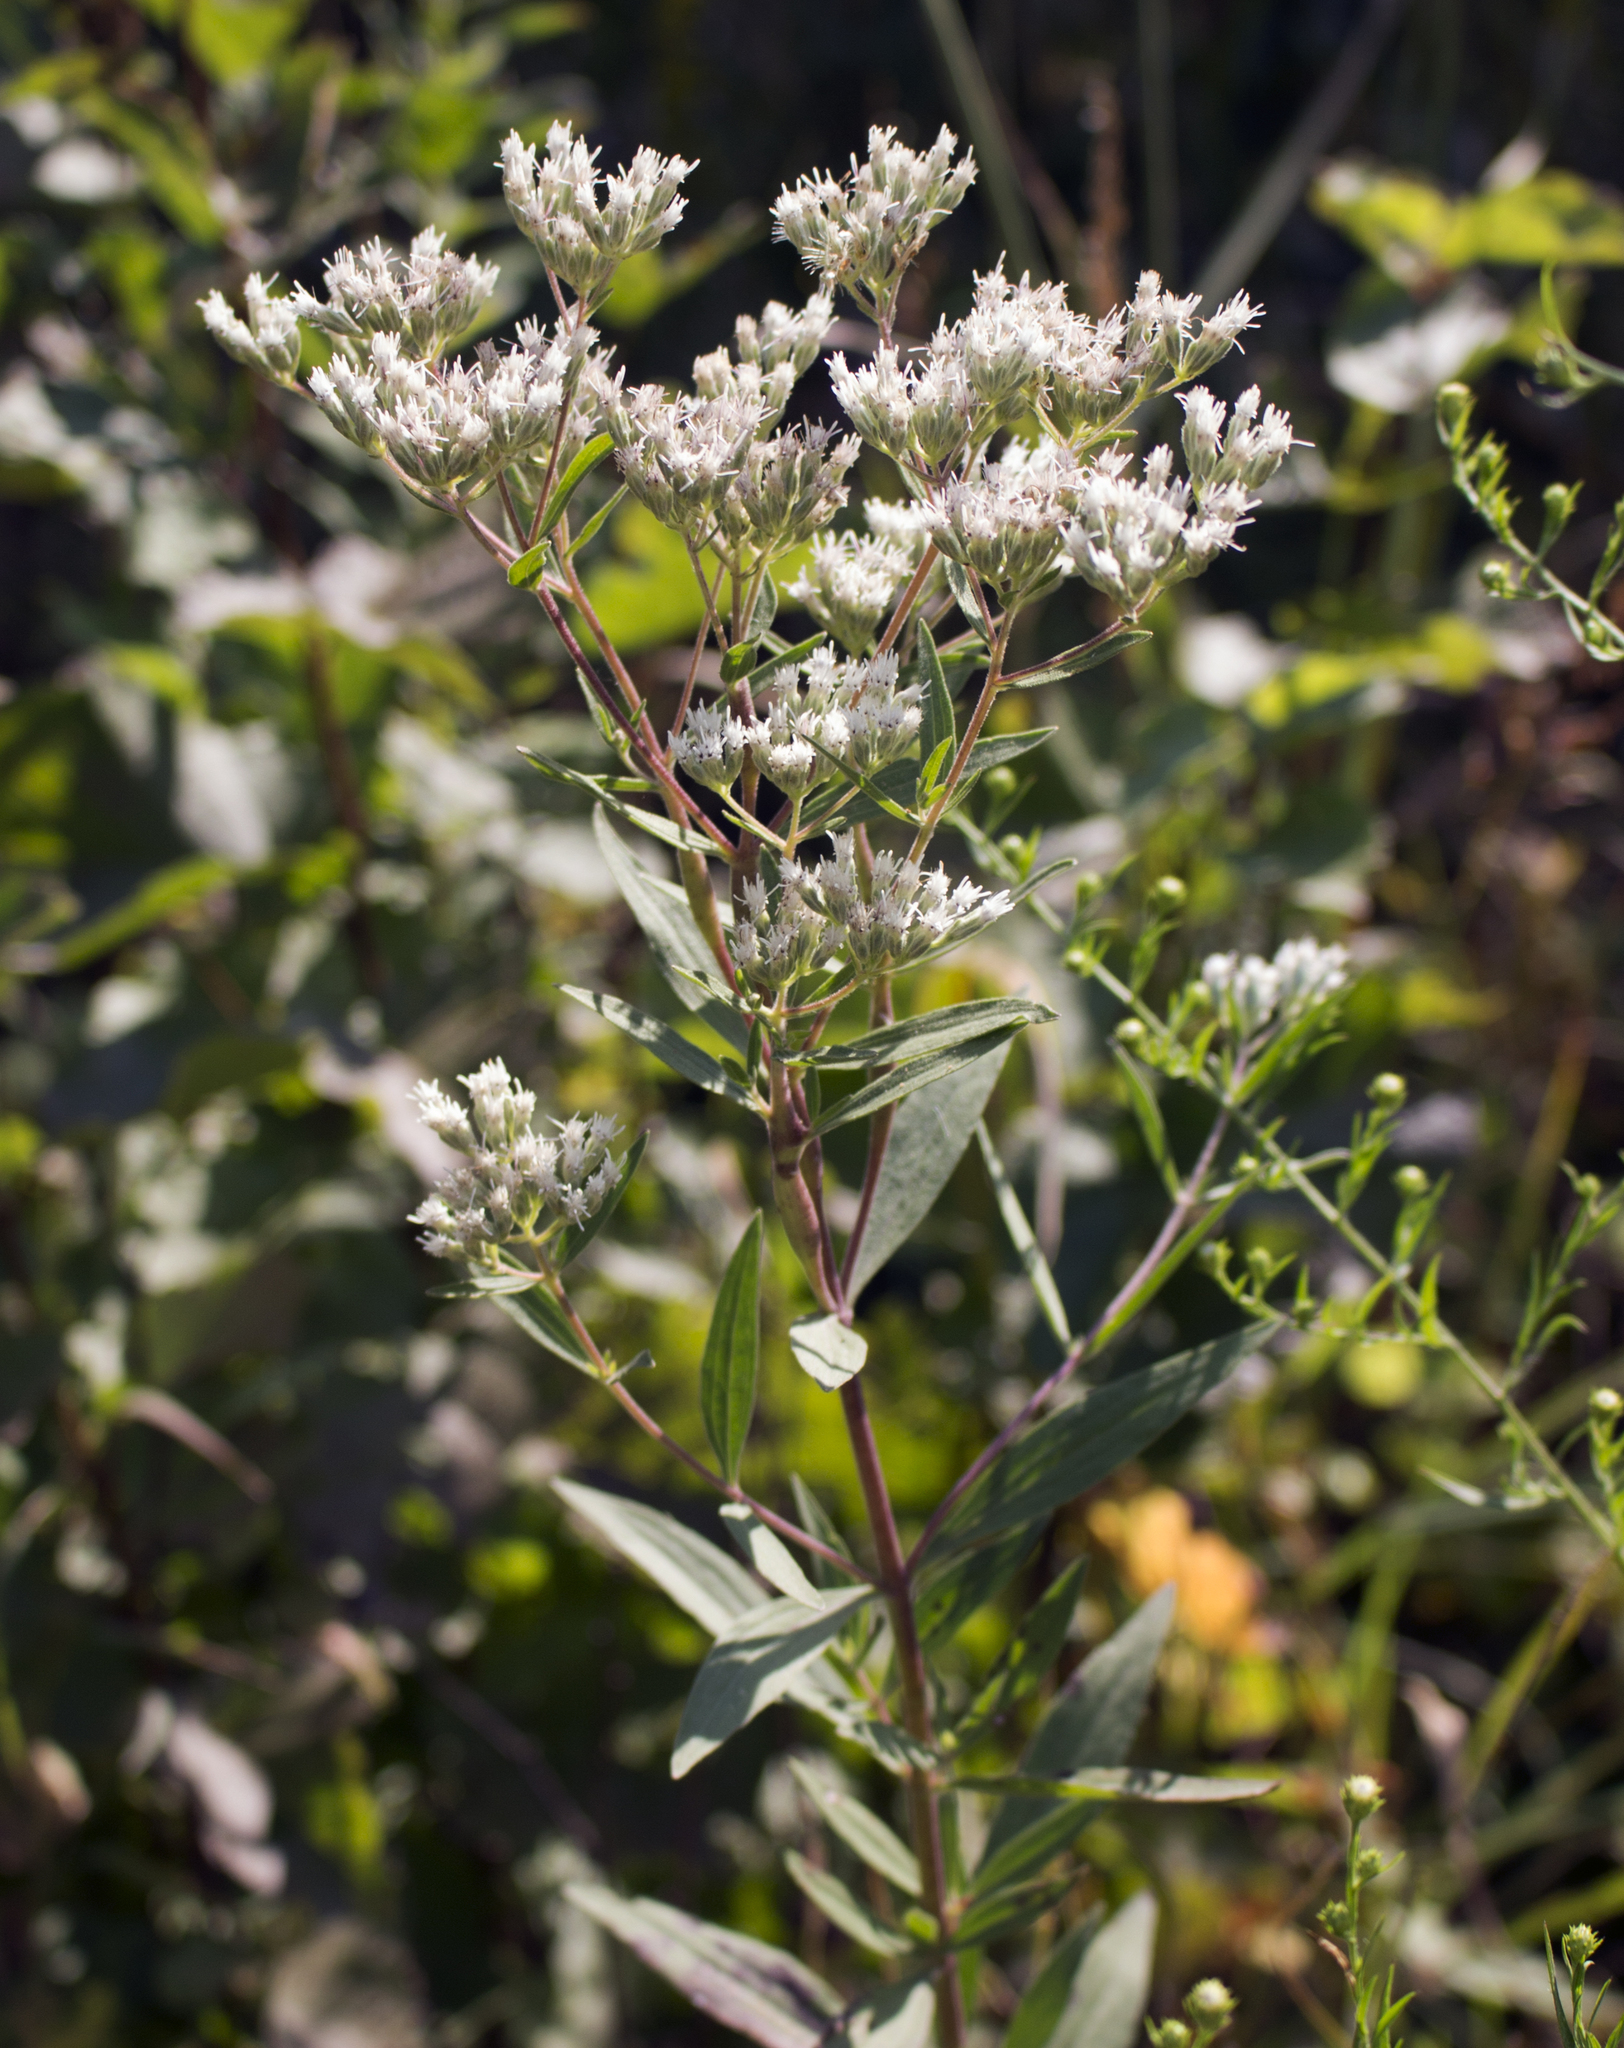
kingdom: Plantae
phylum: Tracheophyta
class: Magnoliopsida
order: Asterales
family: Asteraceae
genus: Eupatorium
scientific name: Eupatorium altissimum
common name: Tall thoroughwort
